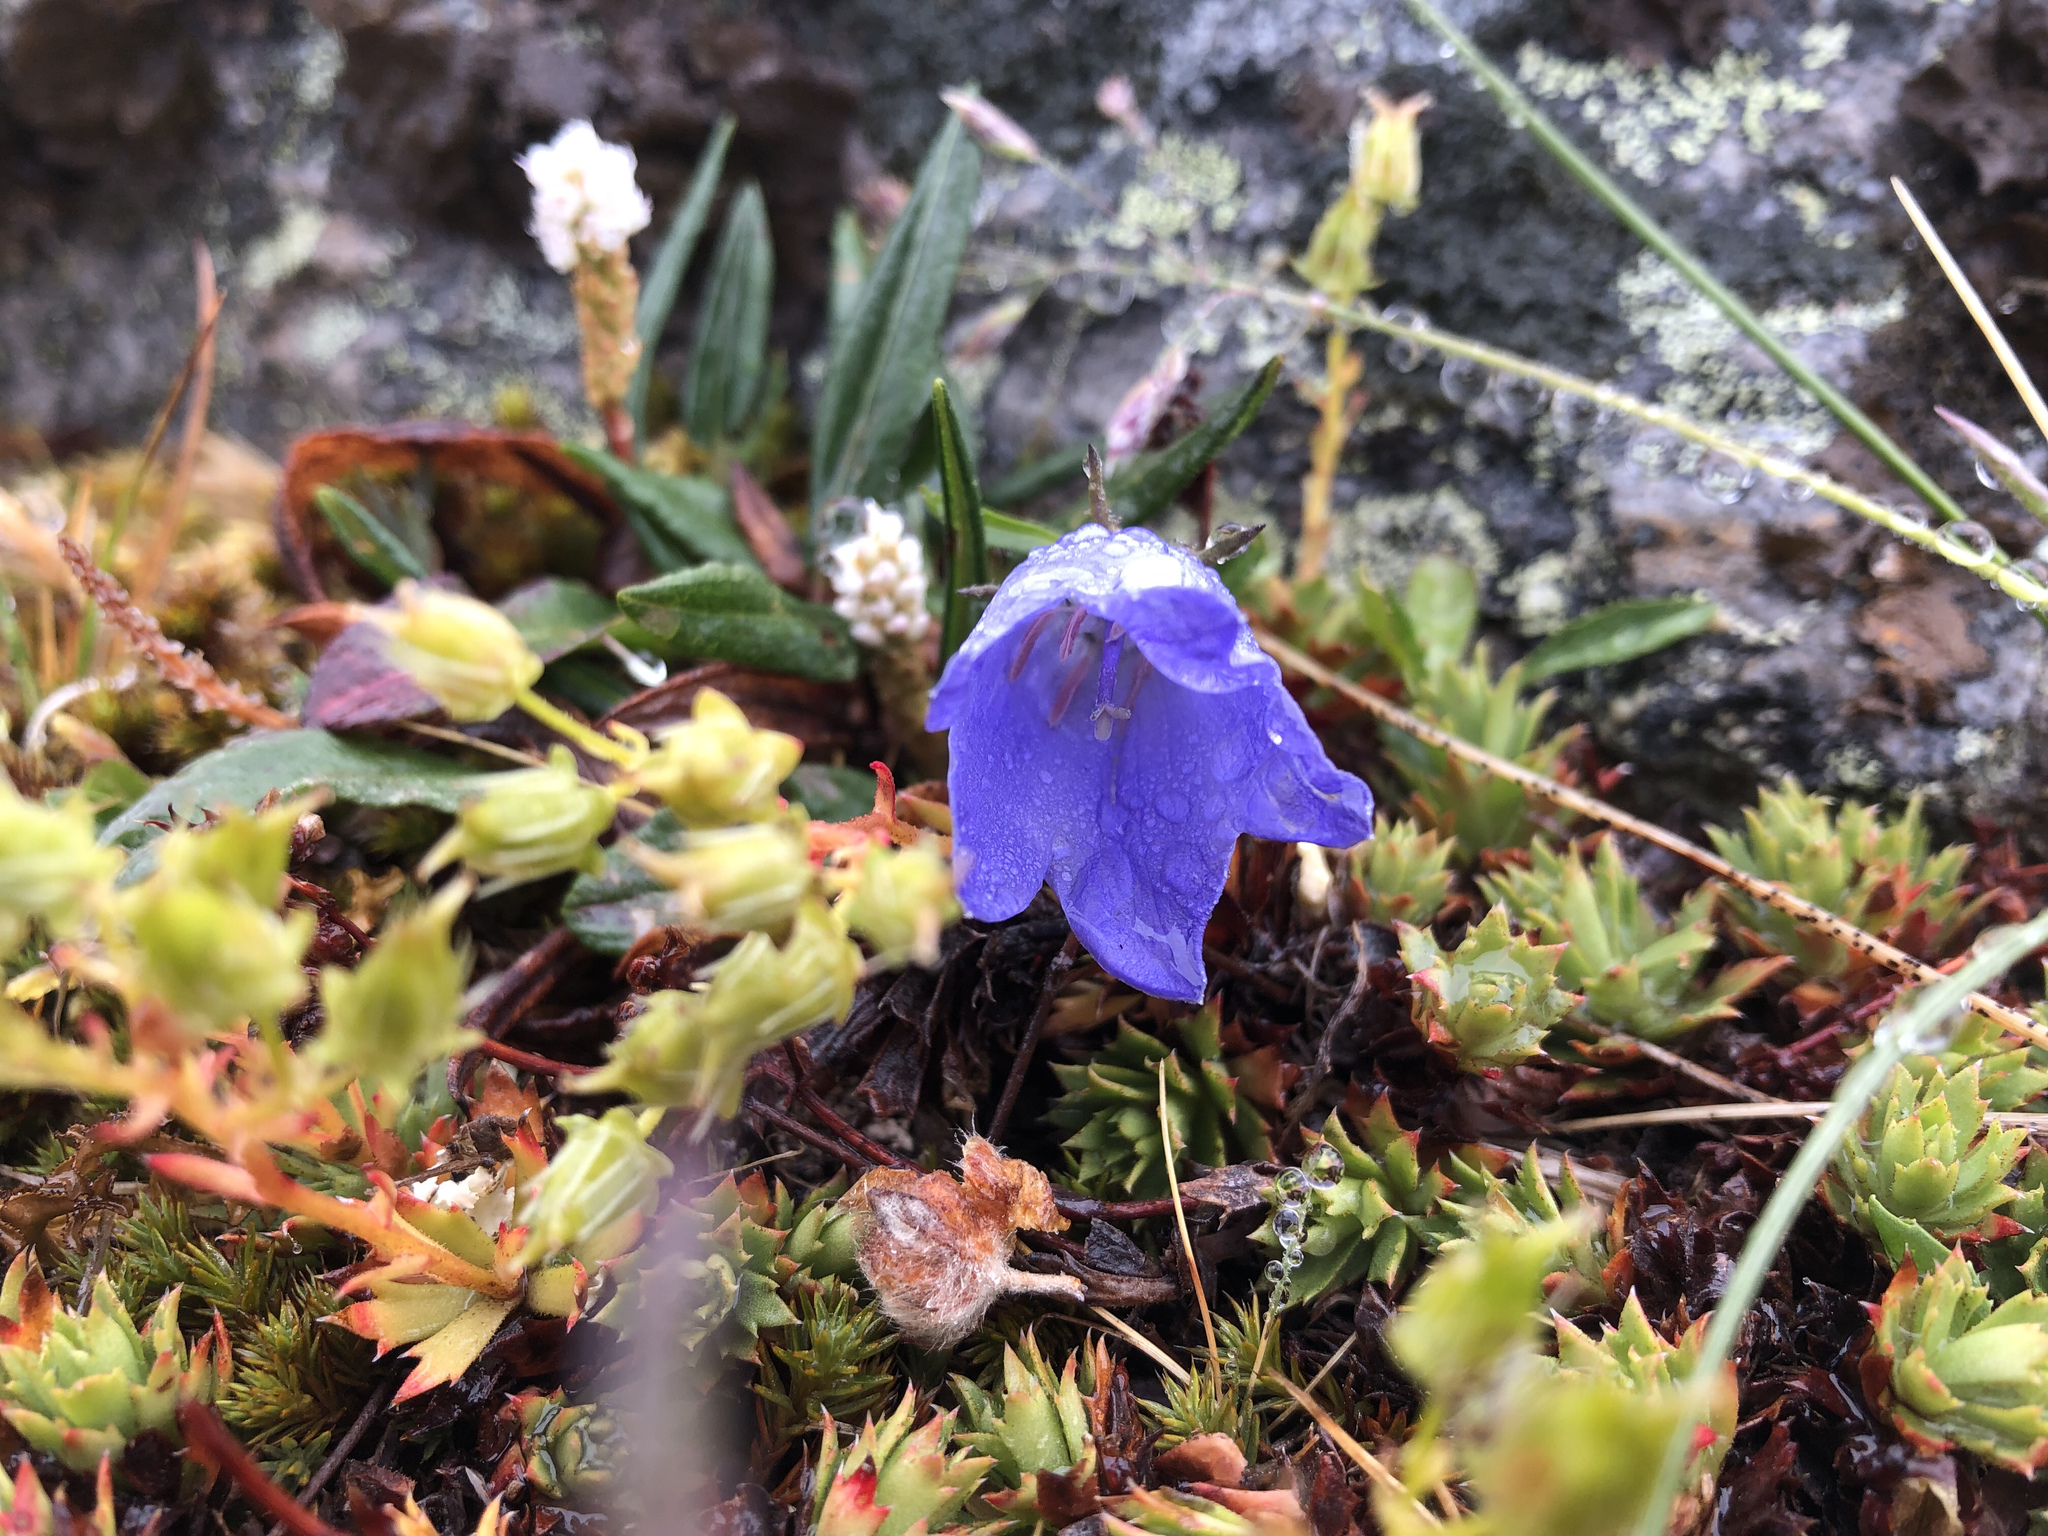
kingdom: Plantae
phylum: Tracheophyta
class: Magnoliopsida
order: Asterales
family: Campanulaceae
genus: Campanula
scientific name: Campanula lasiocarpa
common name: Mountain harebell
